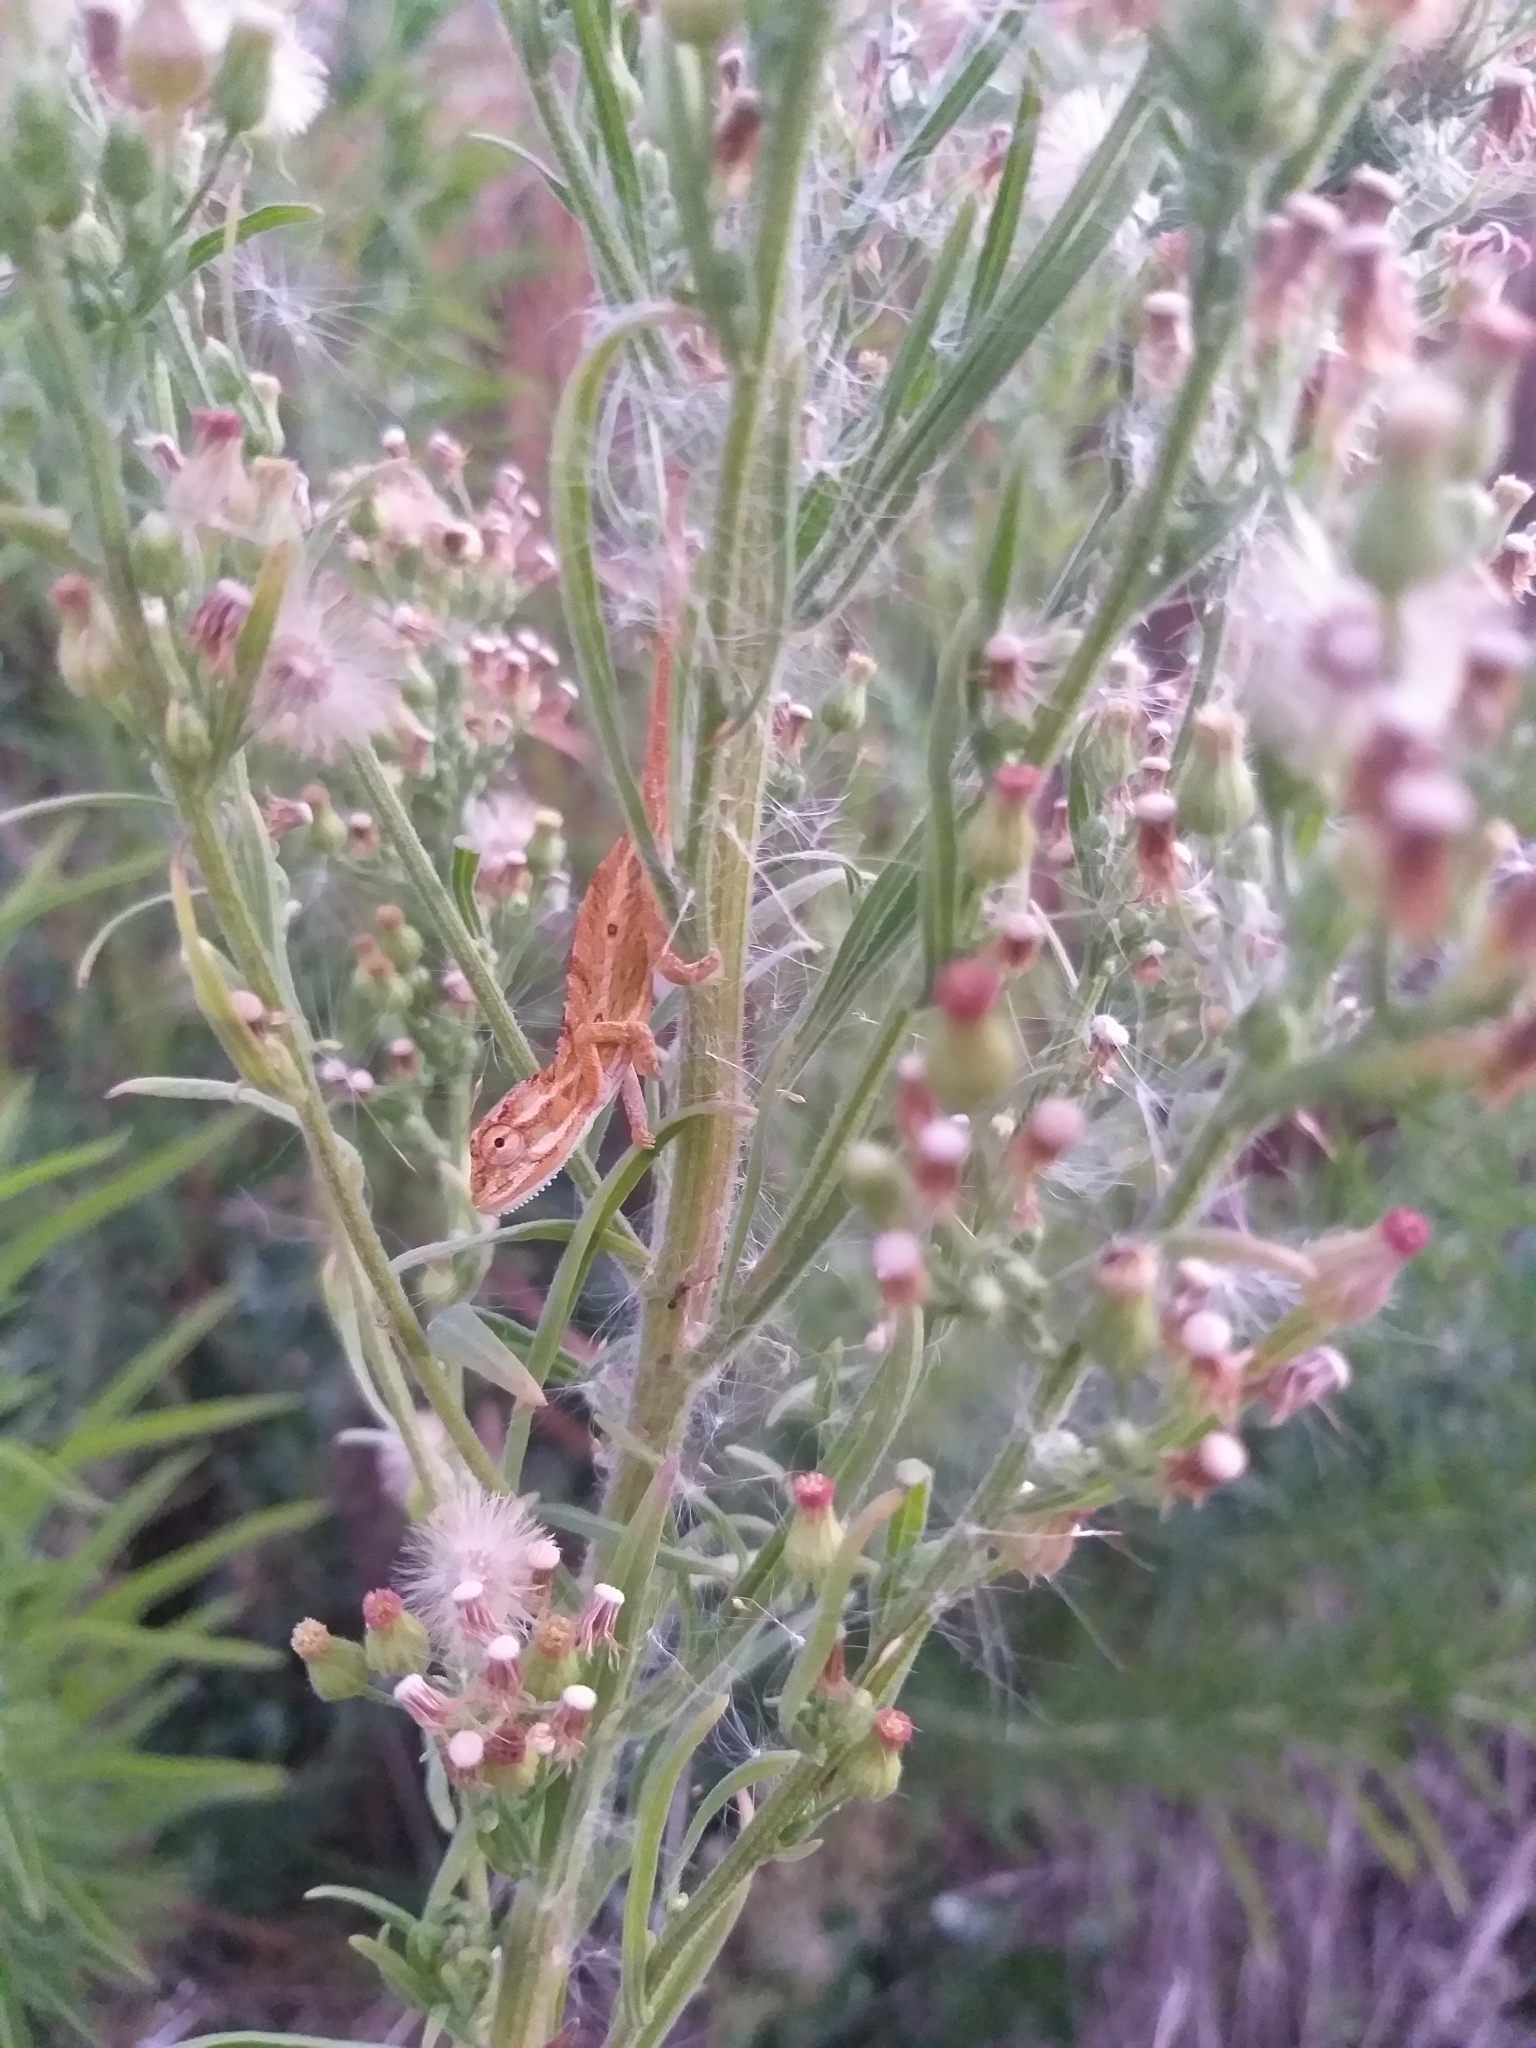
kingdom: Animalia
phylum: Chordata
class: Squamata
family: Chamaeleonidae
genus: Bradypodion
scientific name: Bradypodion pumilum
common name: Cape dwarf chameleon
